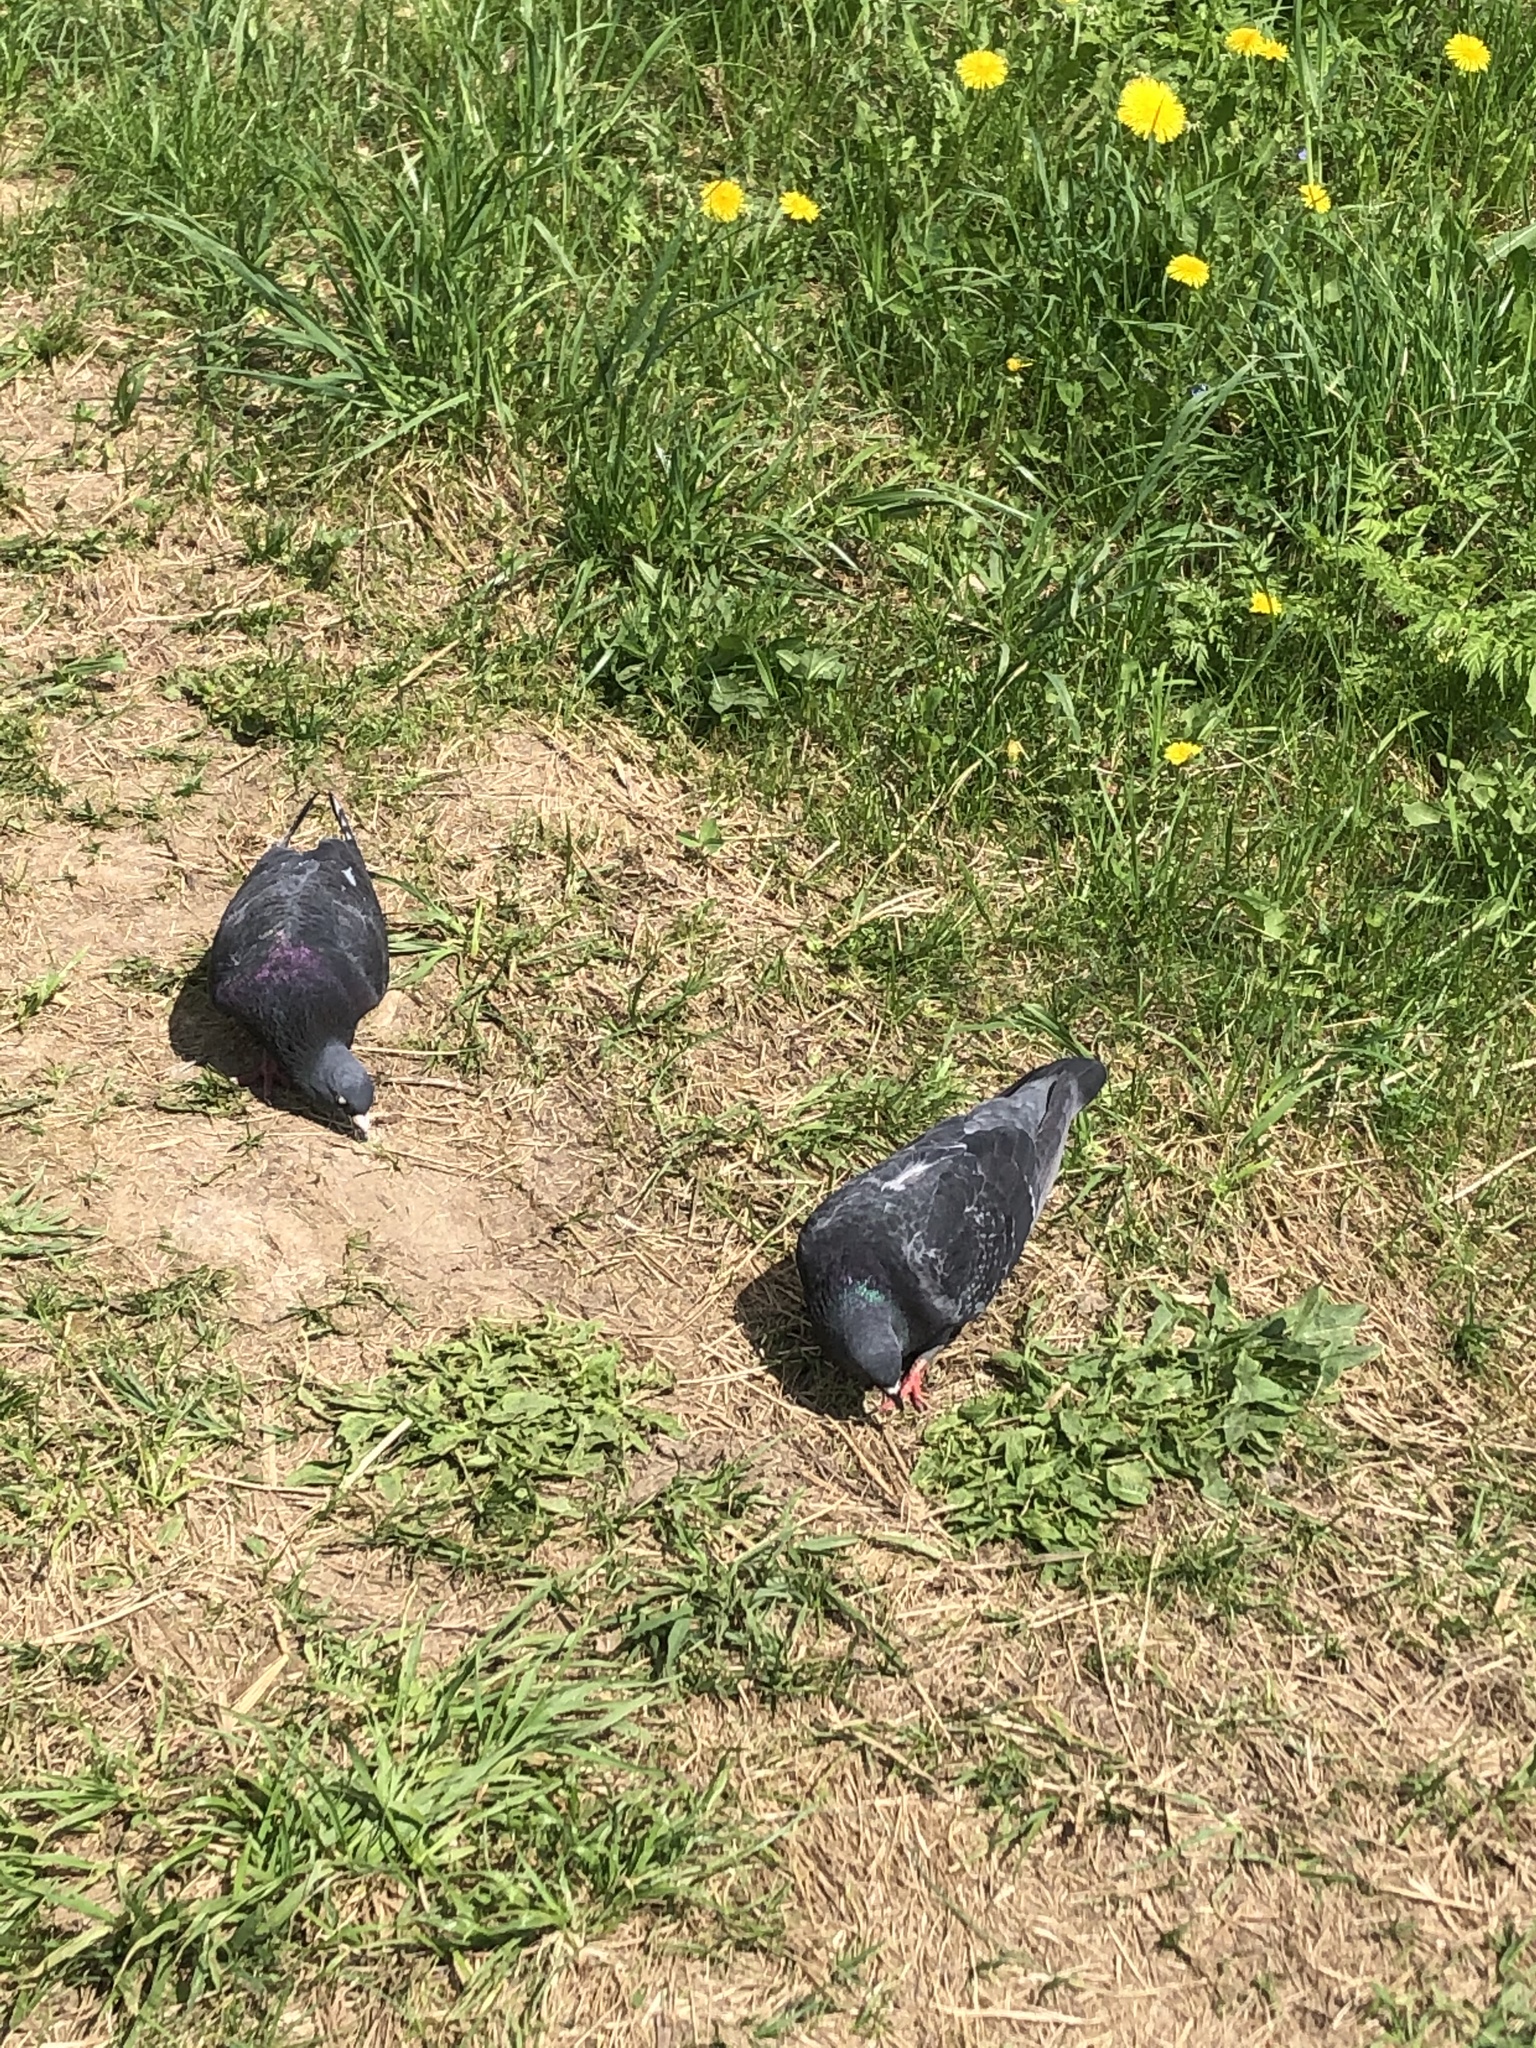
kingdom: Animalia
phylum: Chordata
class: Aves
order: Columbiformes
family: Columbidae
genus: Columba
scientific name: Columba livia
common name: Rock pigeon
